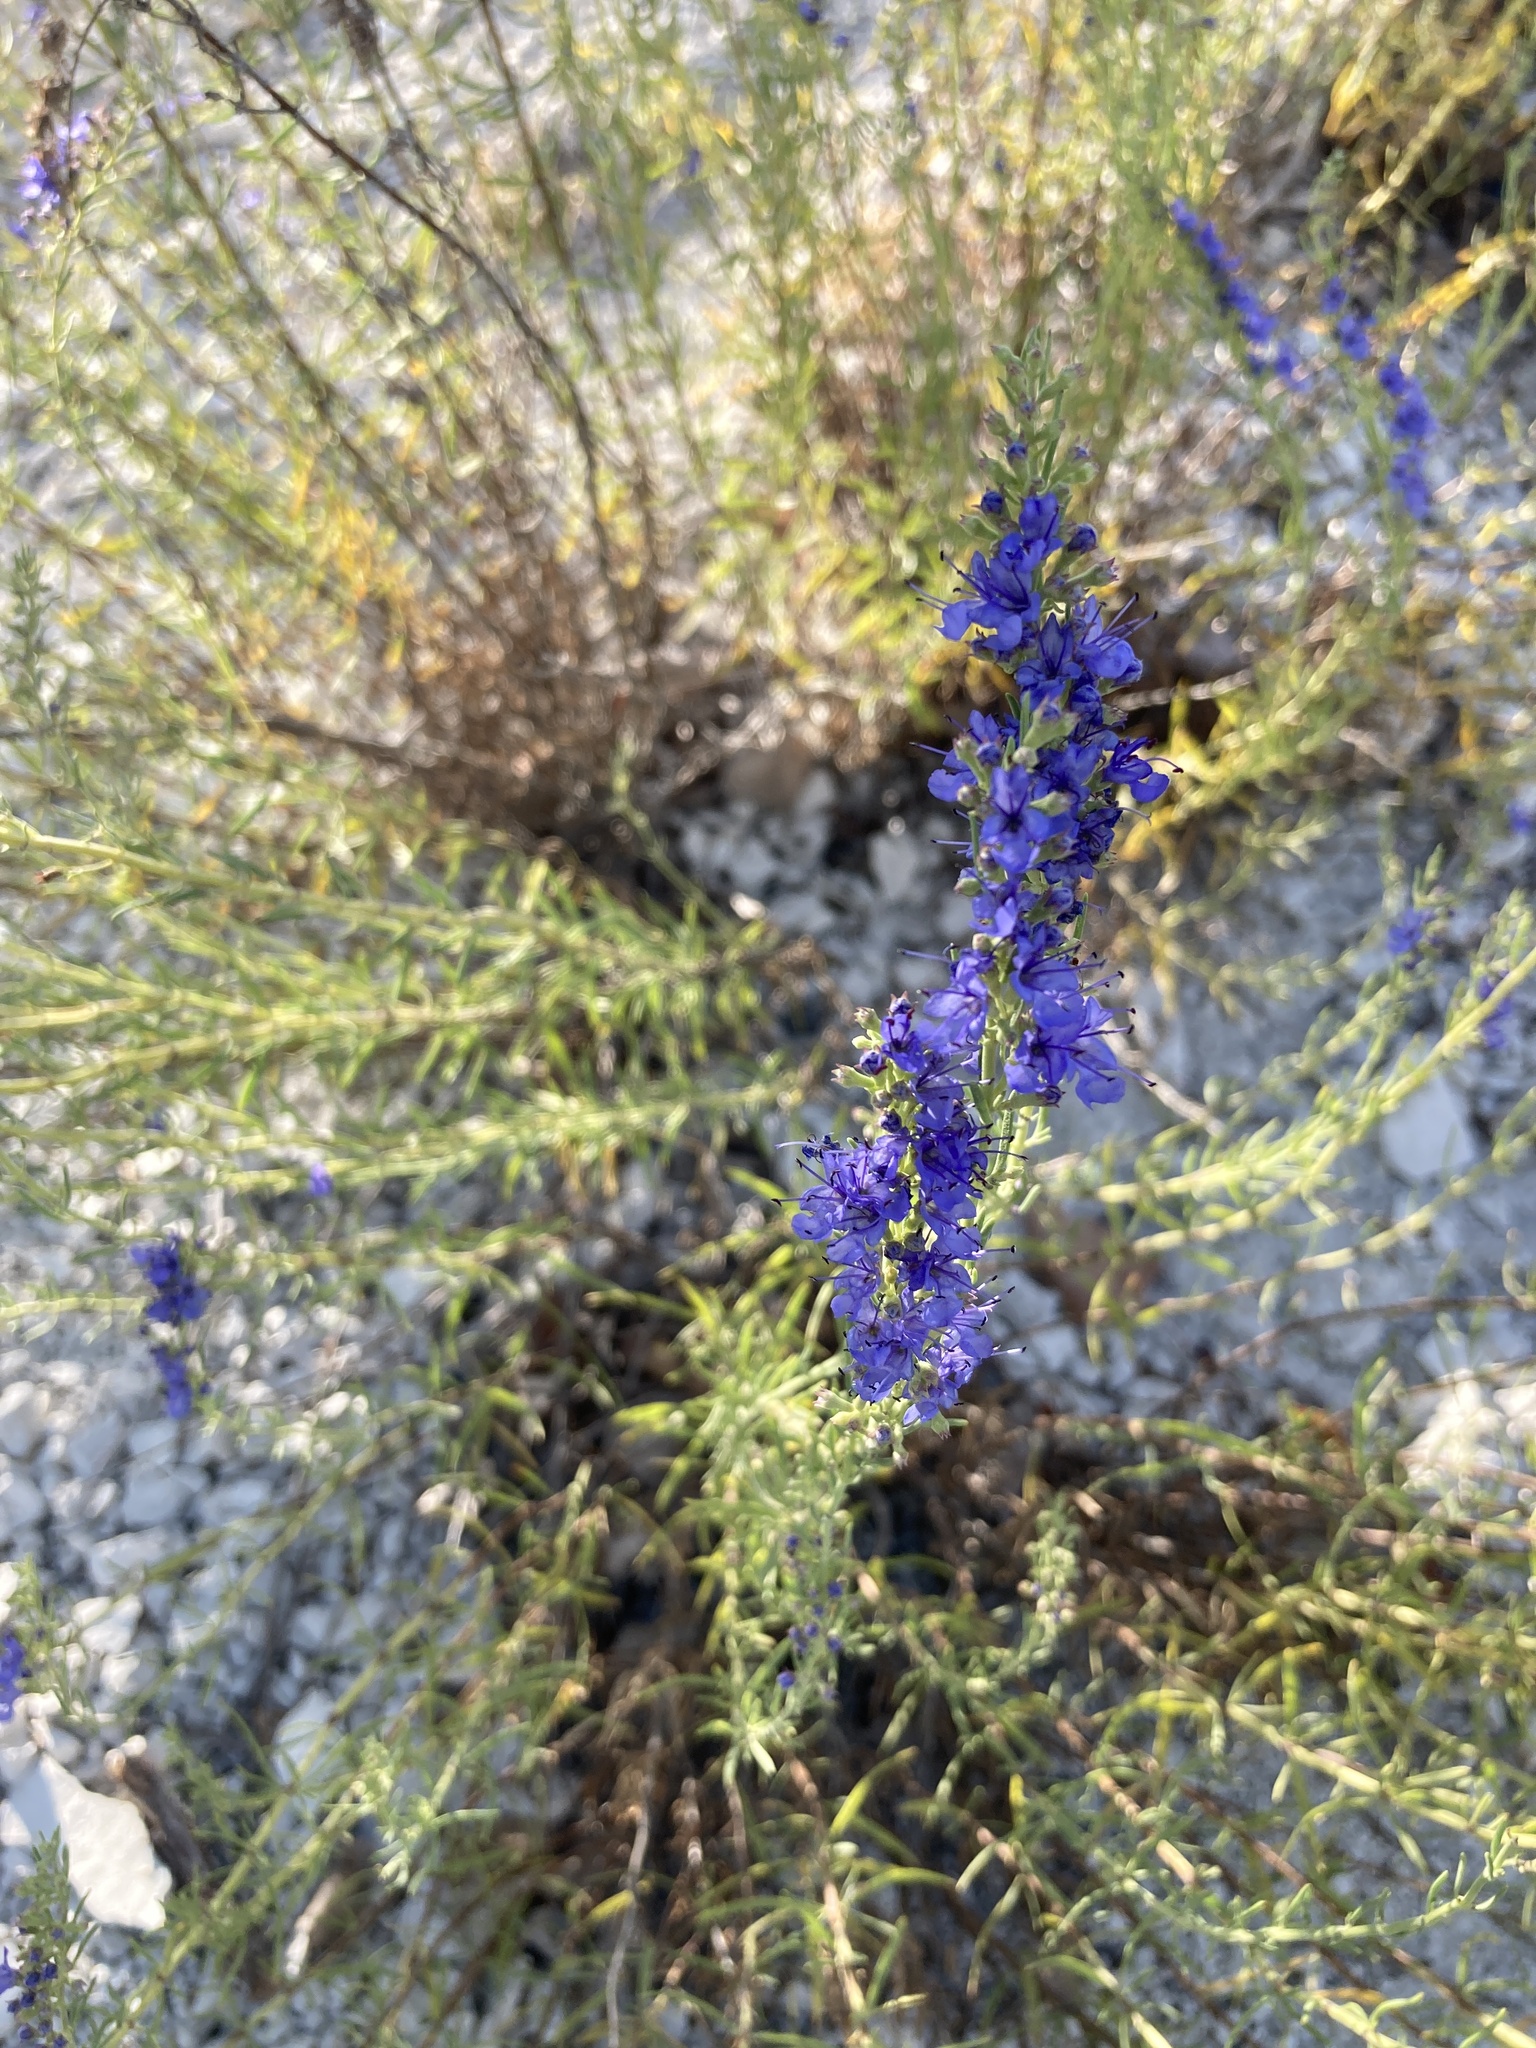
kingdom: Plantae
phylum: Tracheophyta
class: Magnoliopsida
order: Lamiales
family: Lamiaceae
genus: Hyssopus
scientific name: Hyssopus officinalis
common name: Hyssop
